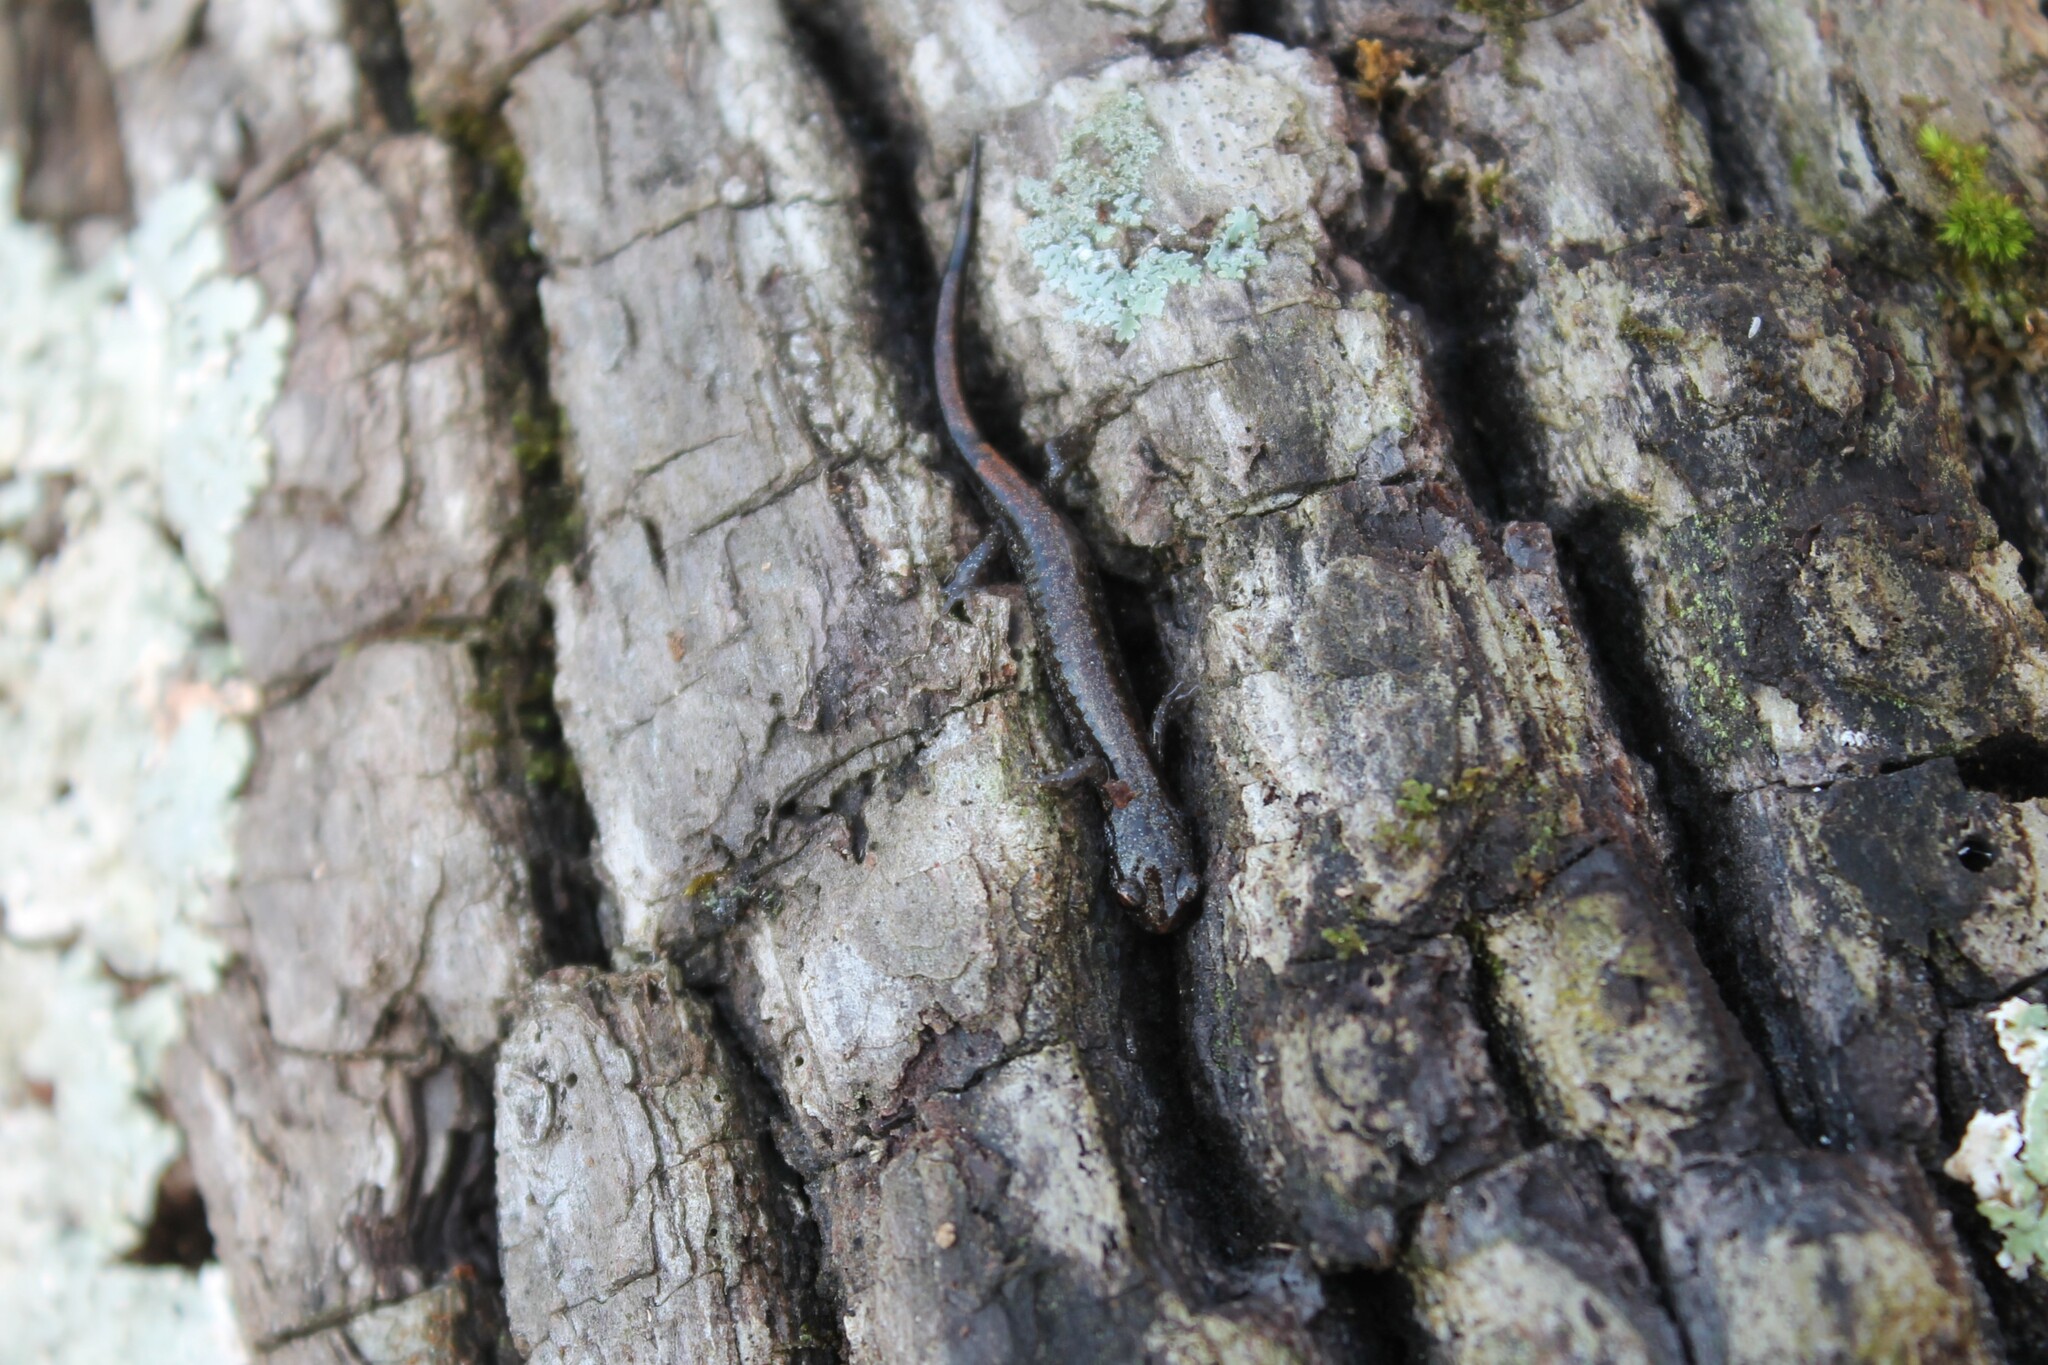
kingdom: Animalia
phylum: Chordata
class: Amphibia
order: Caudata
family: Plethodontidae
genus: Plethodon
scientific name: Plethodon dorsalis
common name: Northern zigzag salamander
